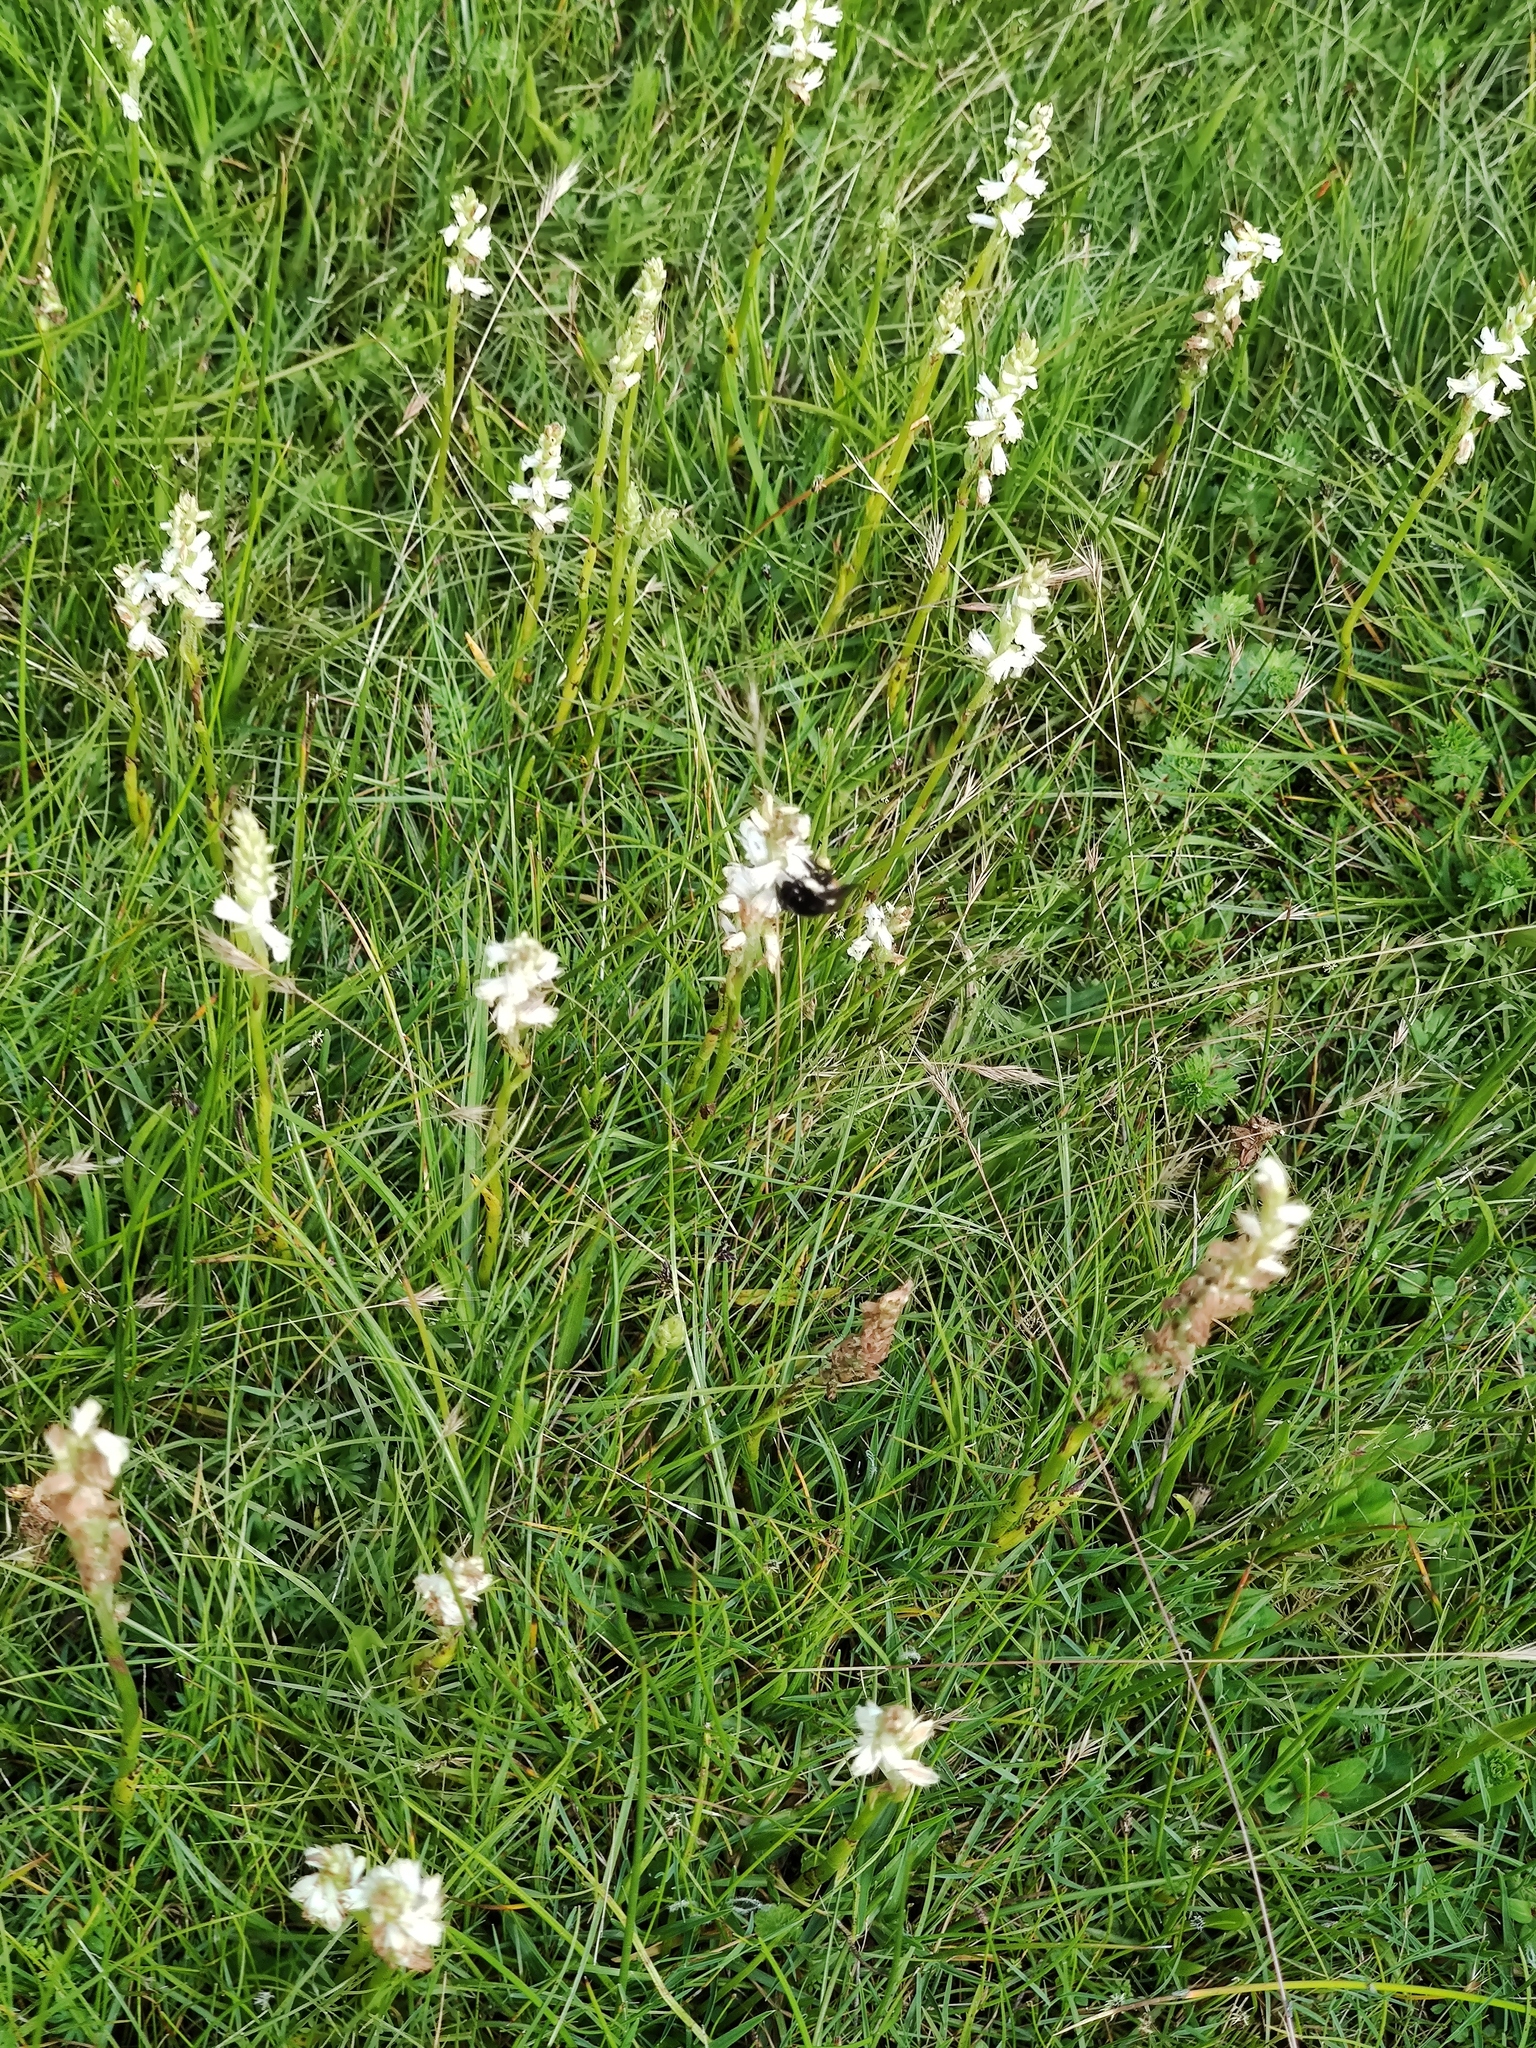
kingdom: Animalia
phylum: Arthropoda
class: Insecta
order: Hymenoptera
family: Apidae
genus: Bombus
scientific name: Bombus ephippiatus
